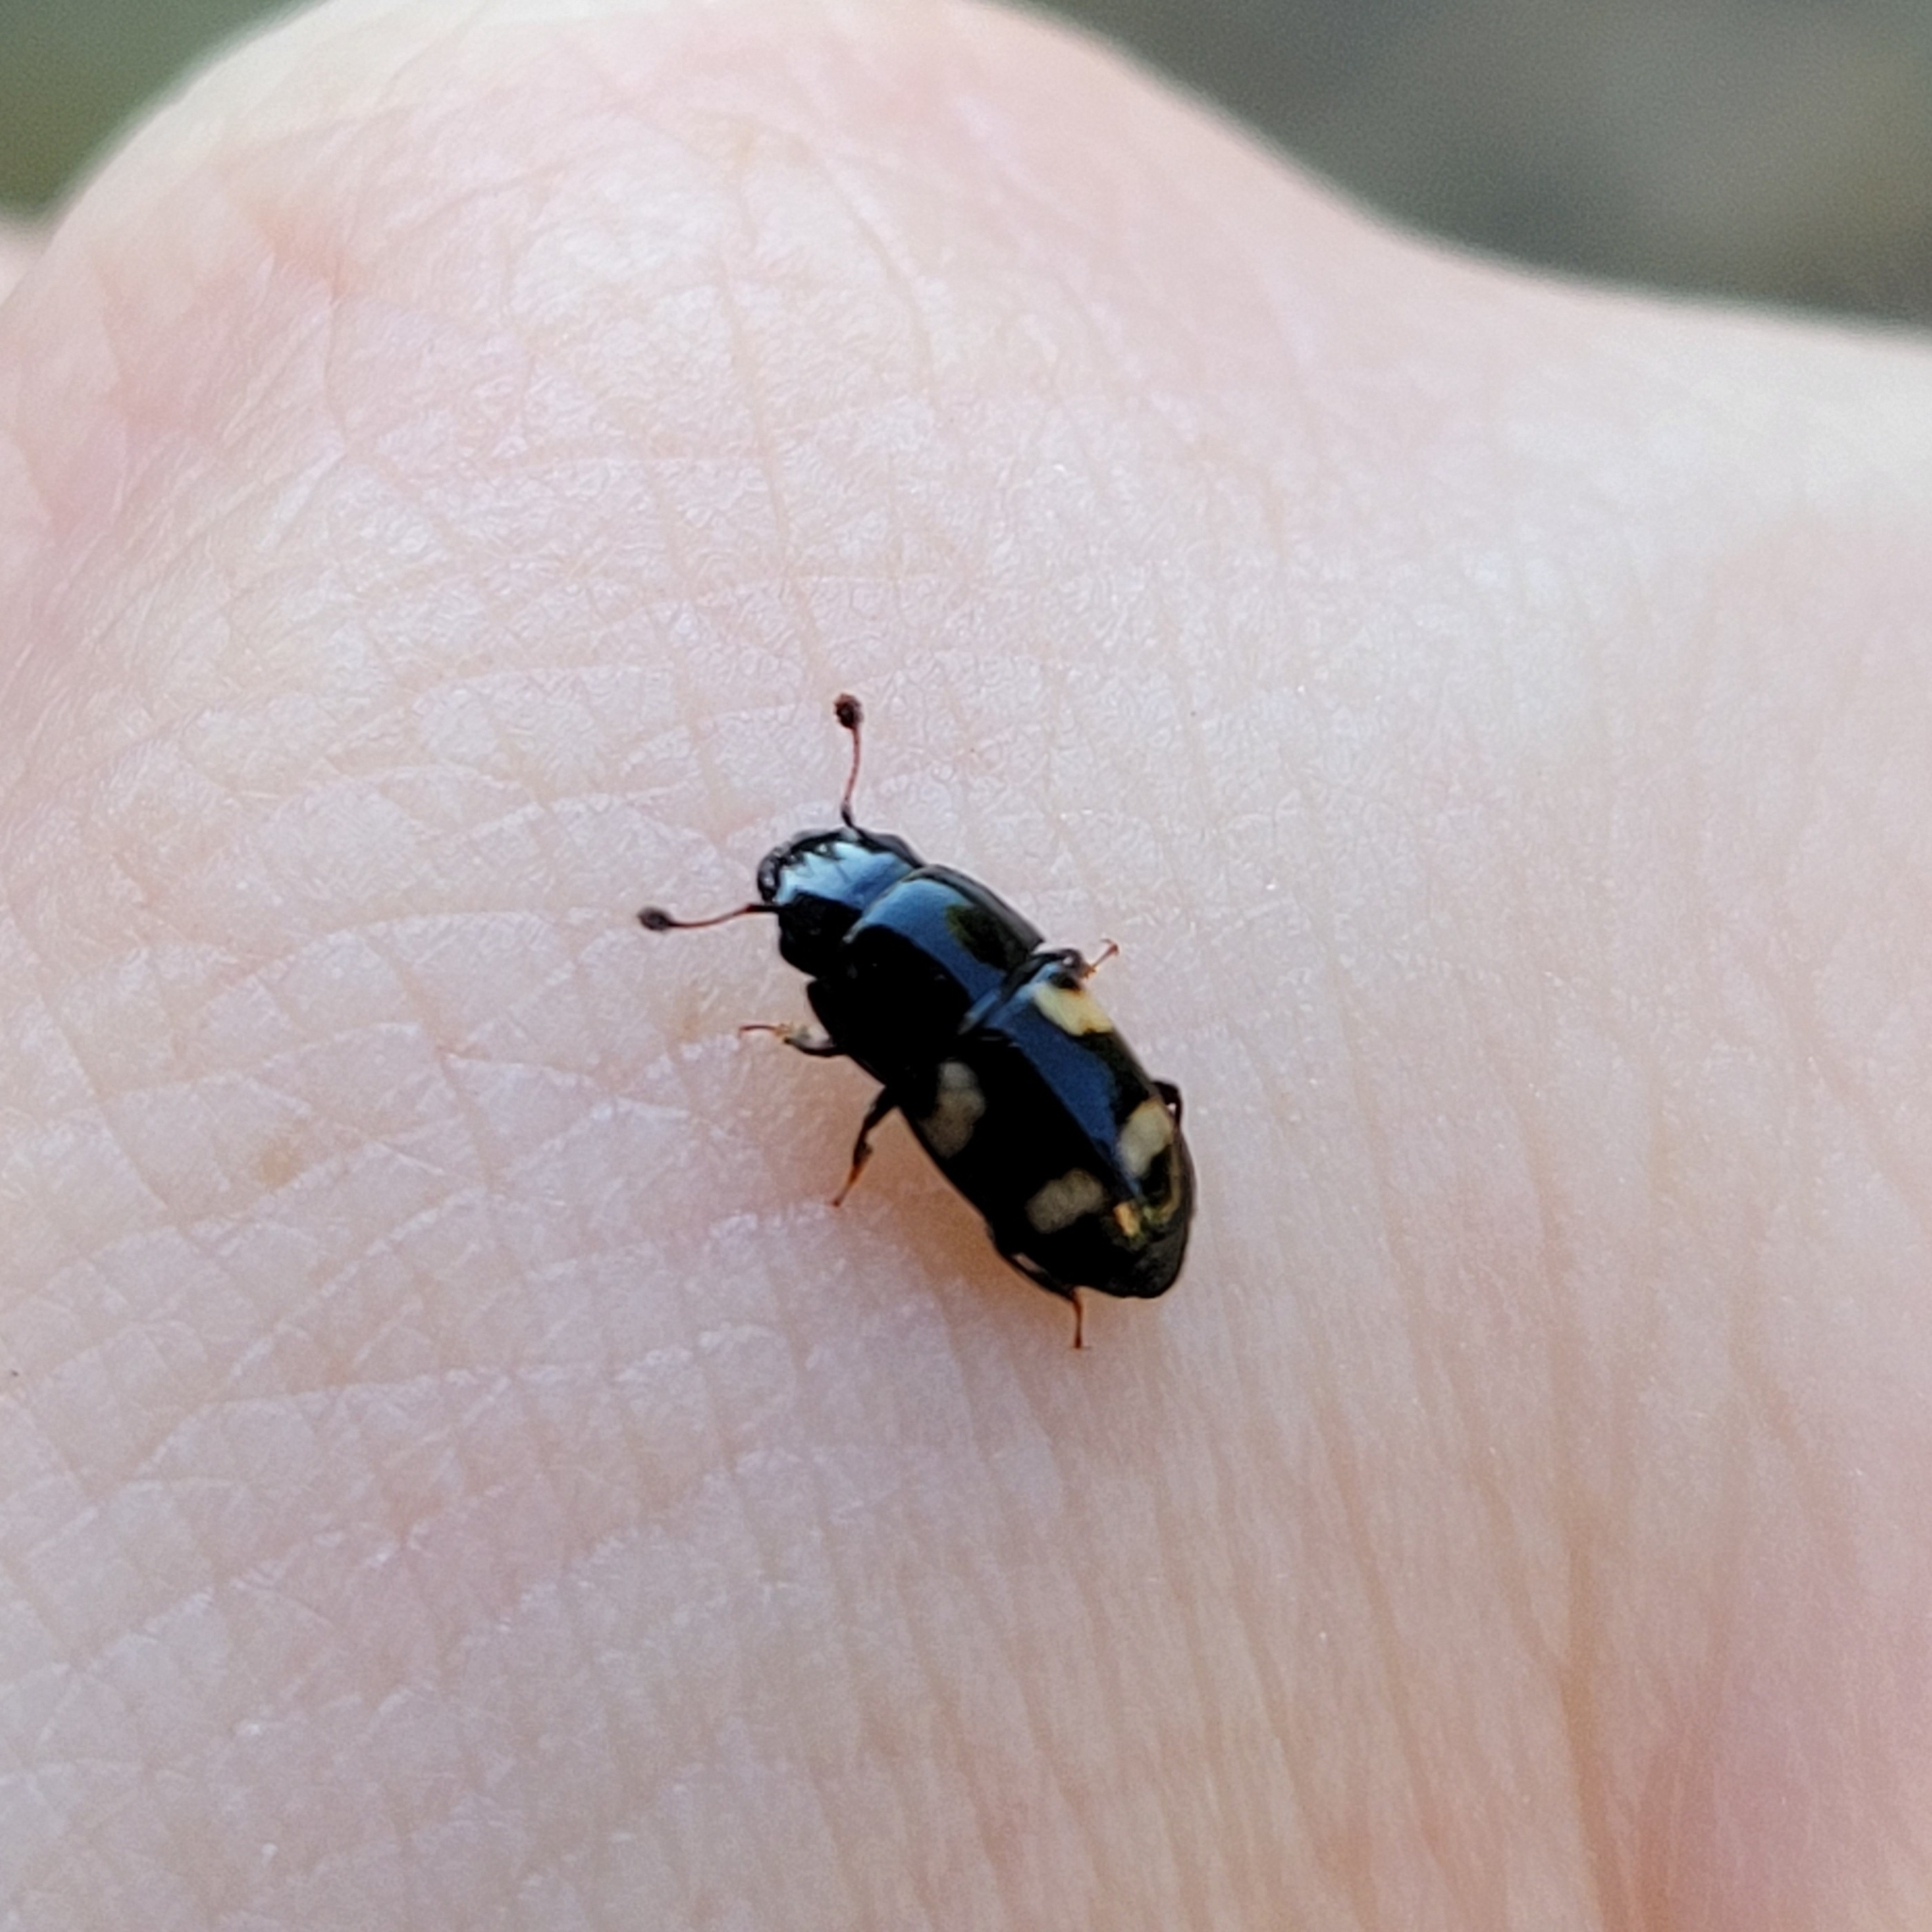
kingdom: Animalia
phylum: Arthropoda
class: Insecta
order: Coleoptera
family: Nitidulidae
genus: Glischrochilus
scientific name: Glischrochilus quadrisignatus
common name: Picnic beetle
